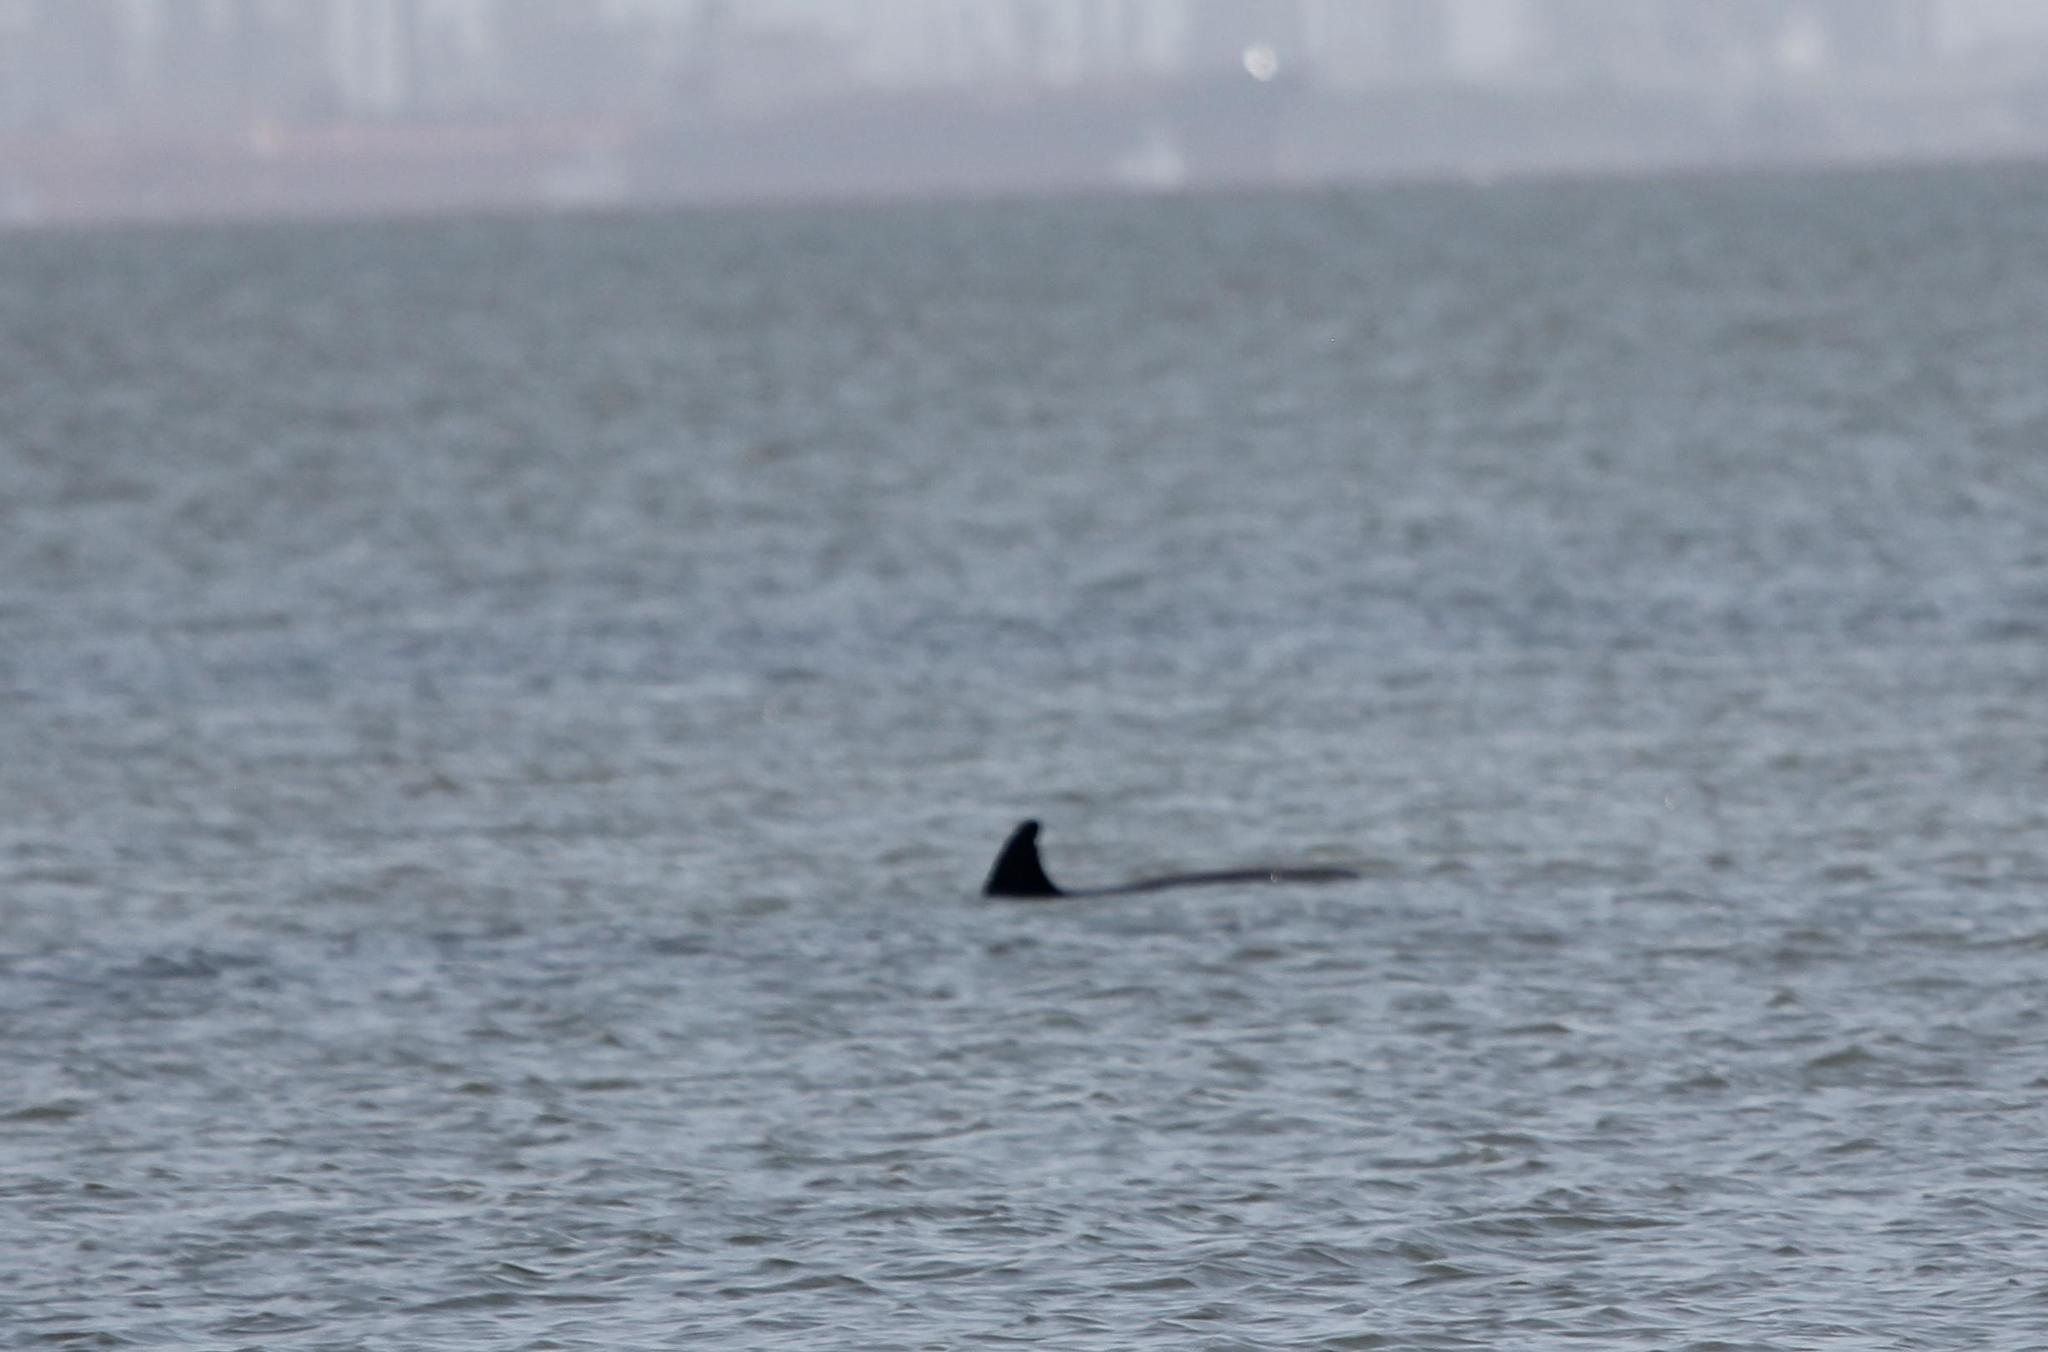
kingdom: Animalia
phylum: Chordata
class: Mammalia
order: Cetacea
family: Delphinidae
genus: Tursiops
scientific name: Tursiops truncatus
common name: Bottlenose dolphin
